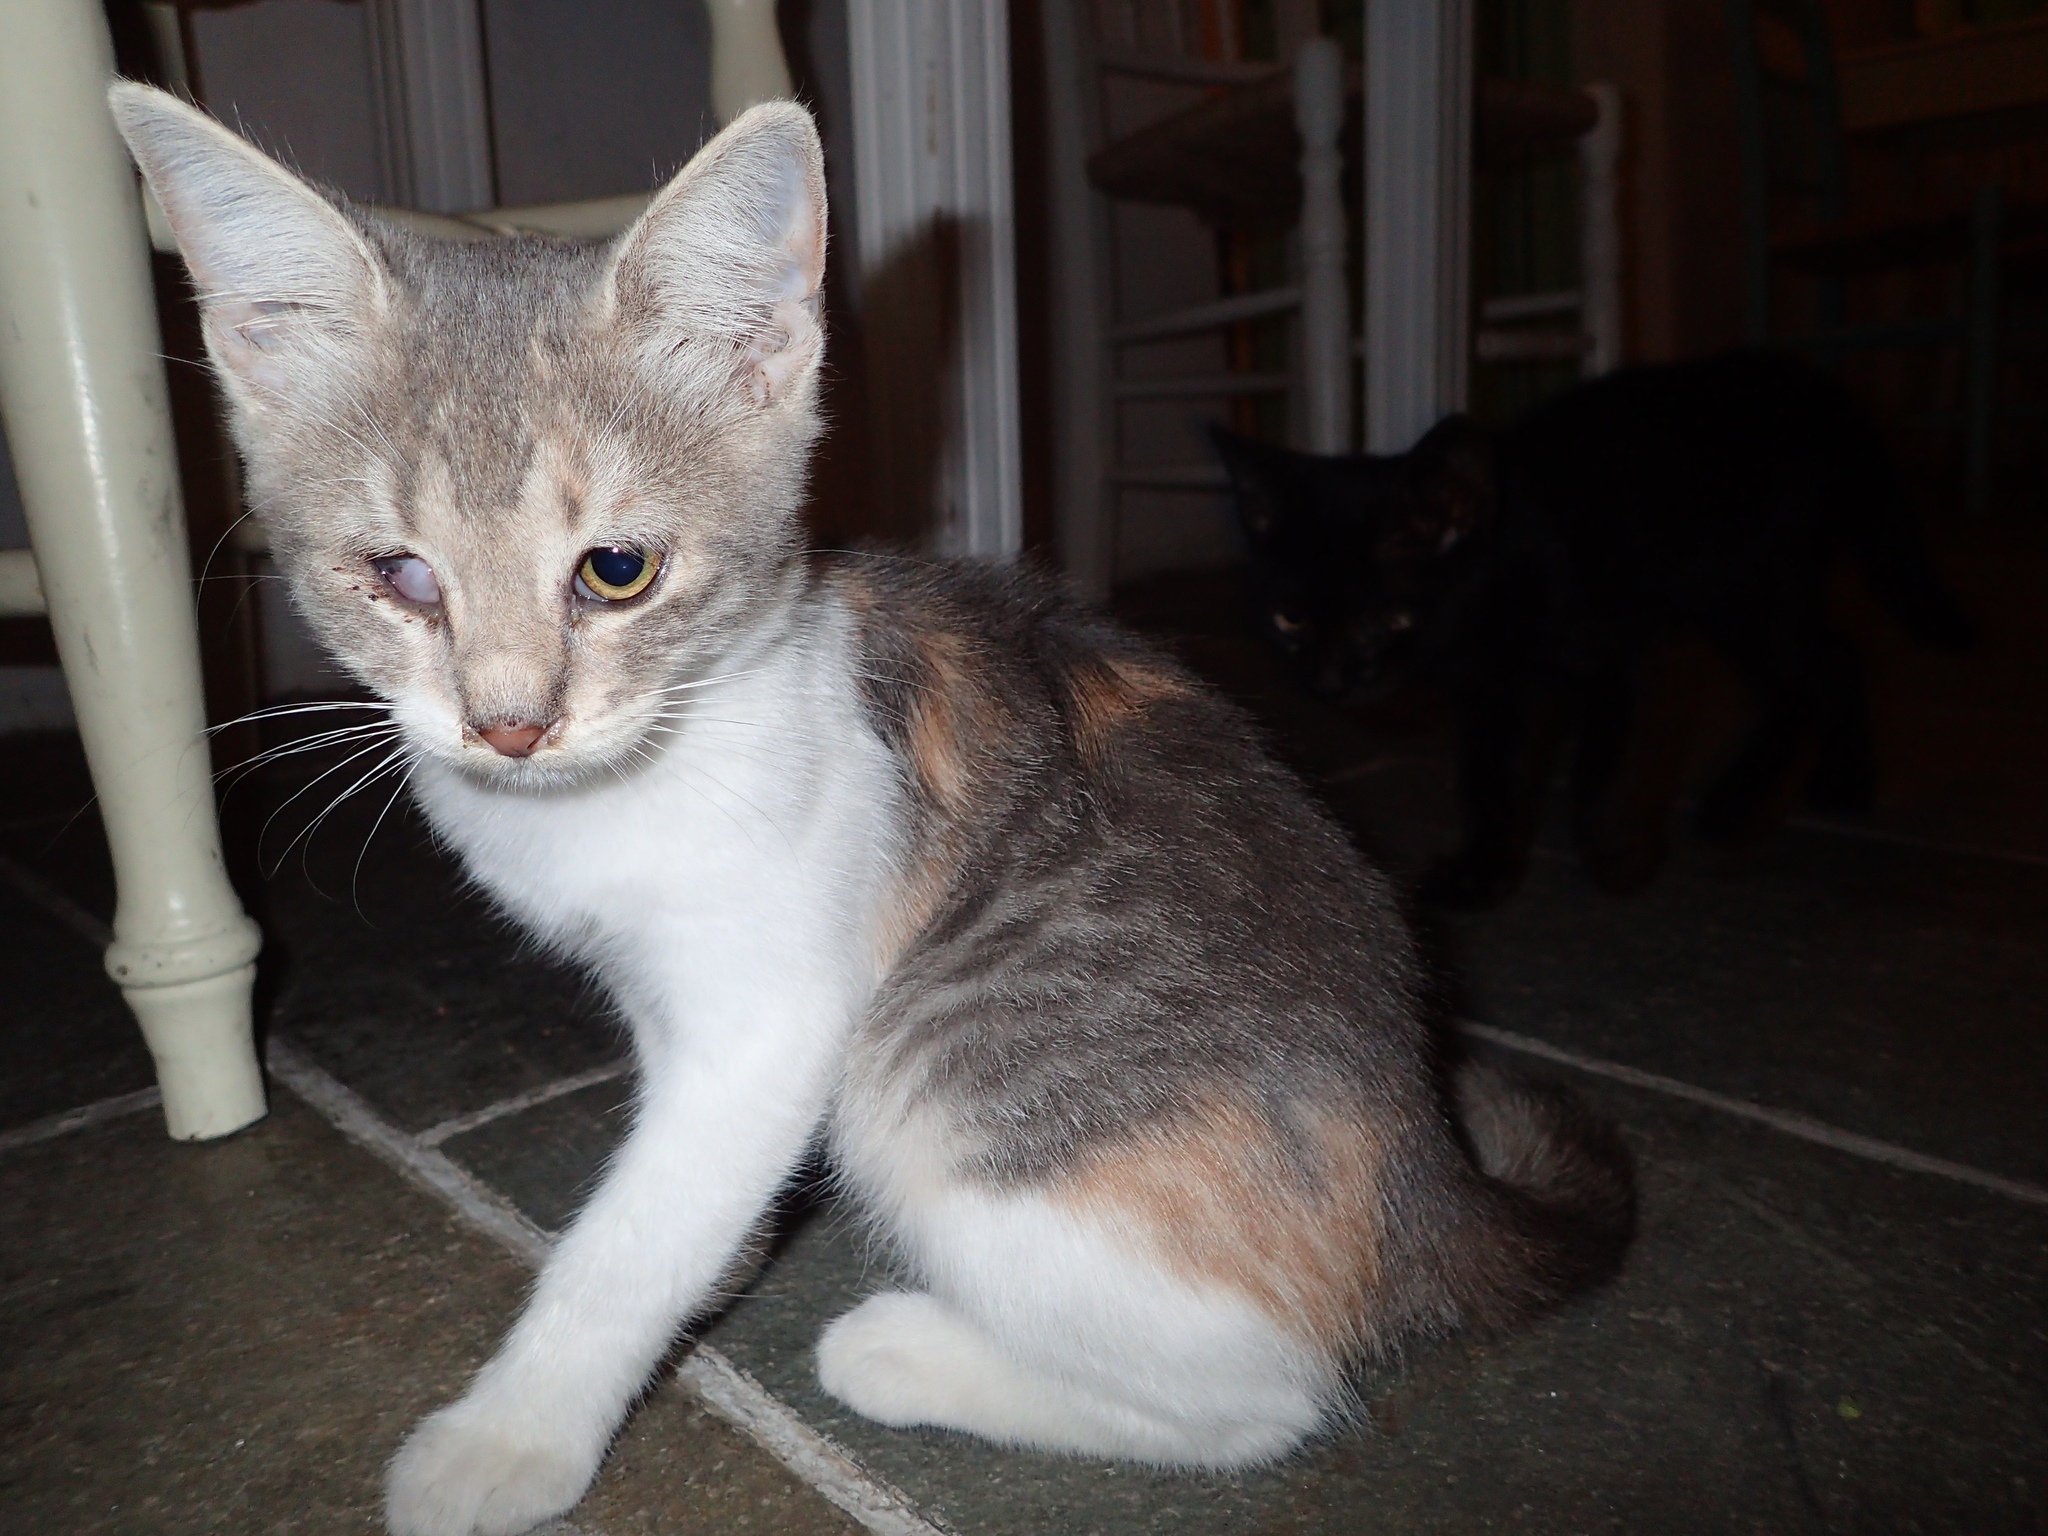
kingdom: Animalia
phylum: Chordata
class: Mammalia
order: Carnivora
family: Felidae
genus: Felis
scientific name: Felis catus
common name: Domestic cat
